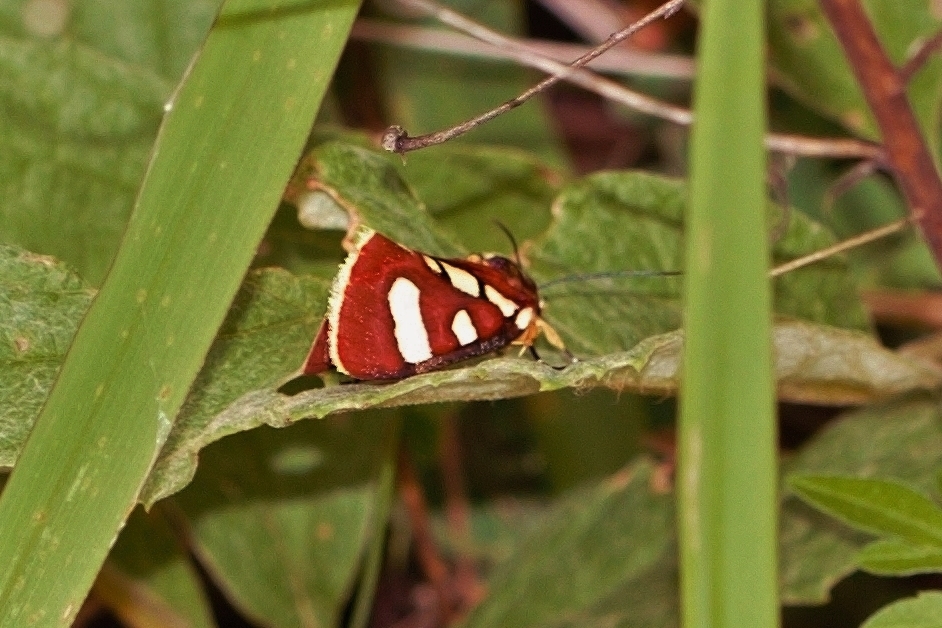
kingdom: Animalia
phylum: Arthropoda
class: Insecta
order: Lepidoptera
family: Noctuidae
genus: Mitrophrys
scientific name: Mitrophrys menete
